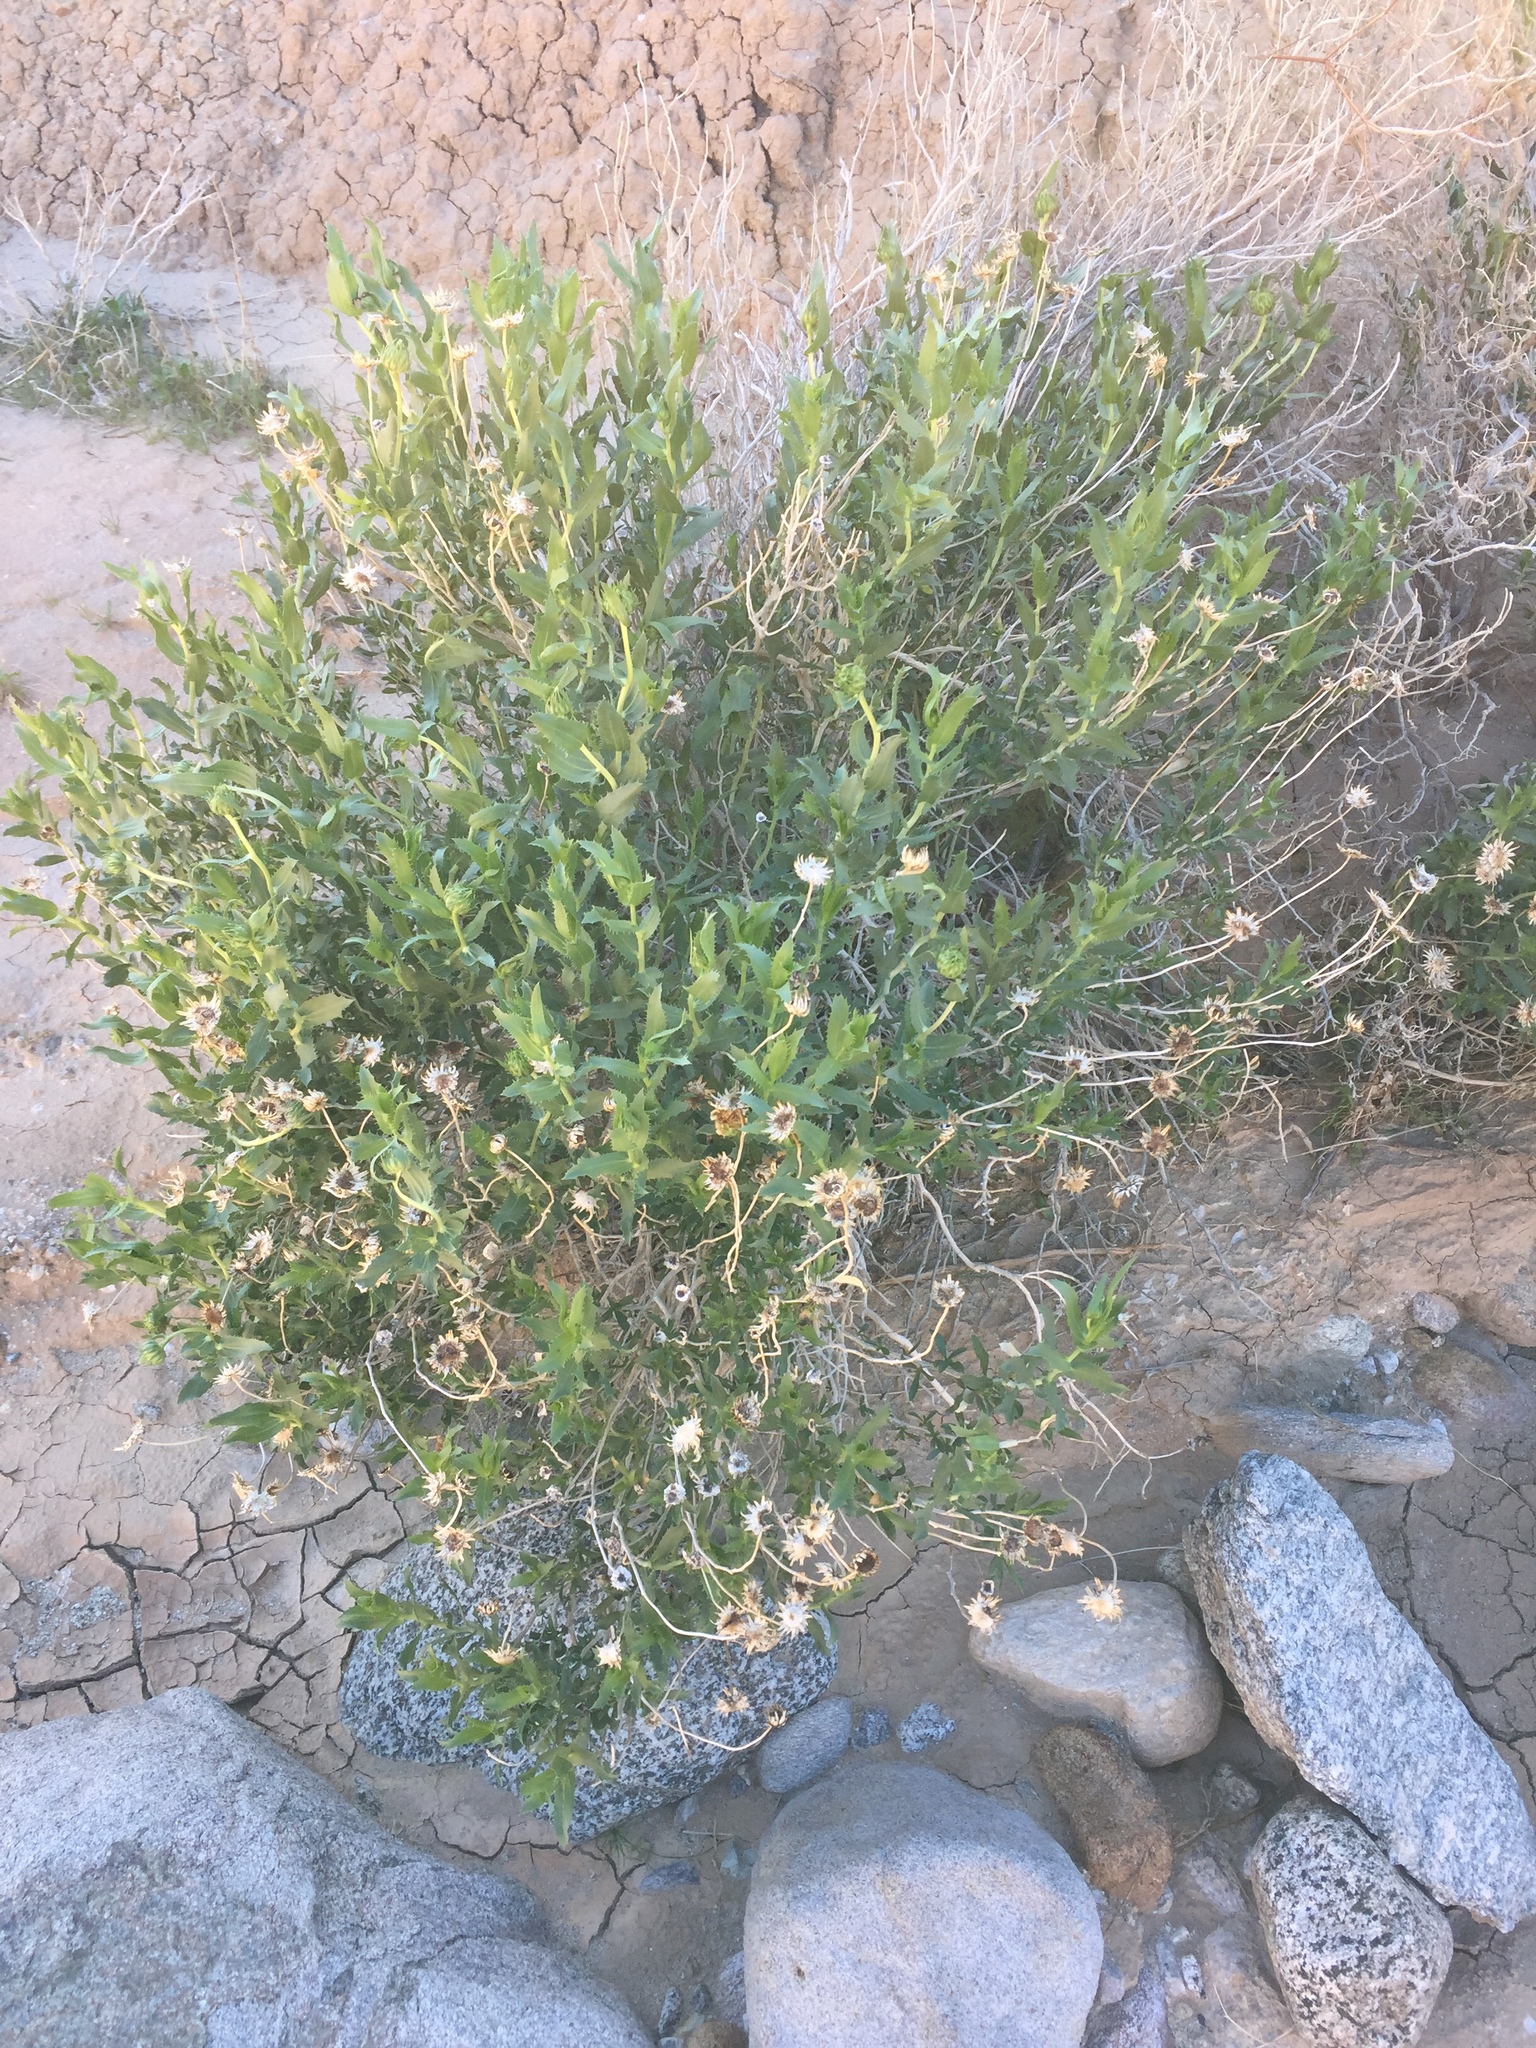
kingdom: Plantae
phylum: Tracheophyta
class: Magnoliopsida
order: Asterales
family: Asteraceae
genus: Xylorhiza
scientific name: Xylorhiza orcuttii
